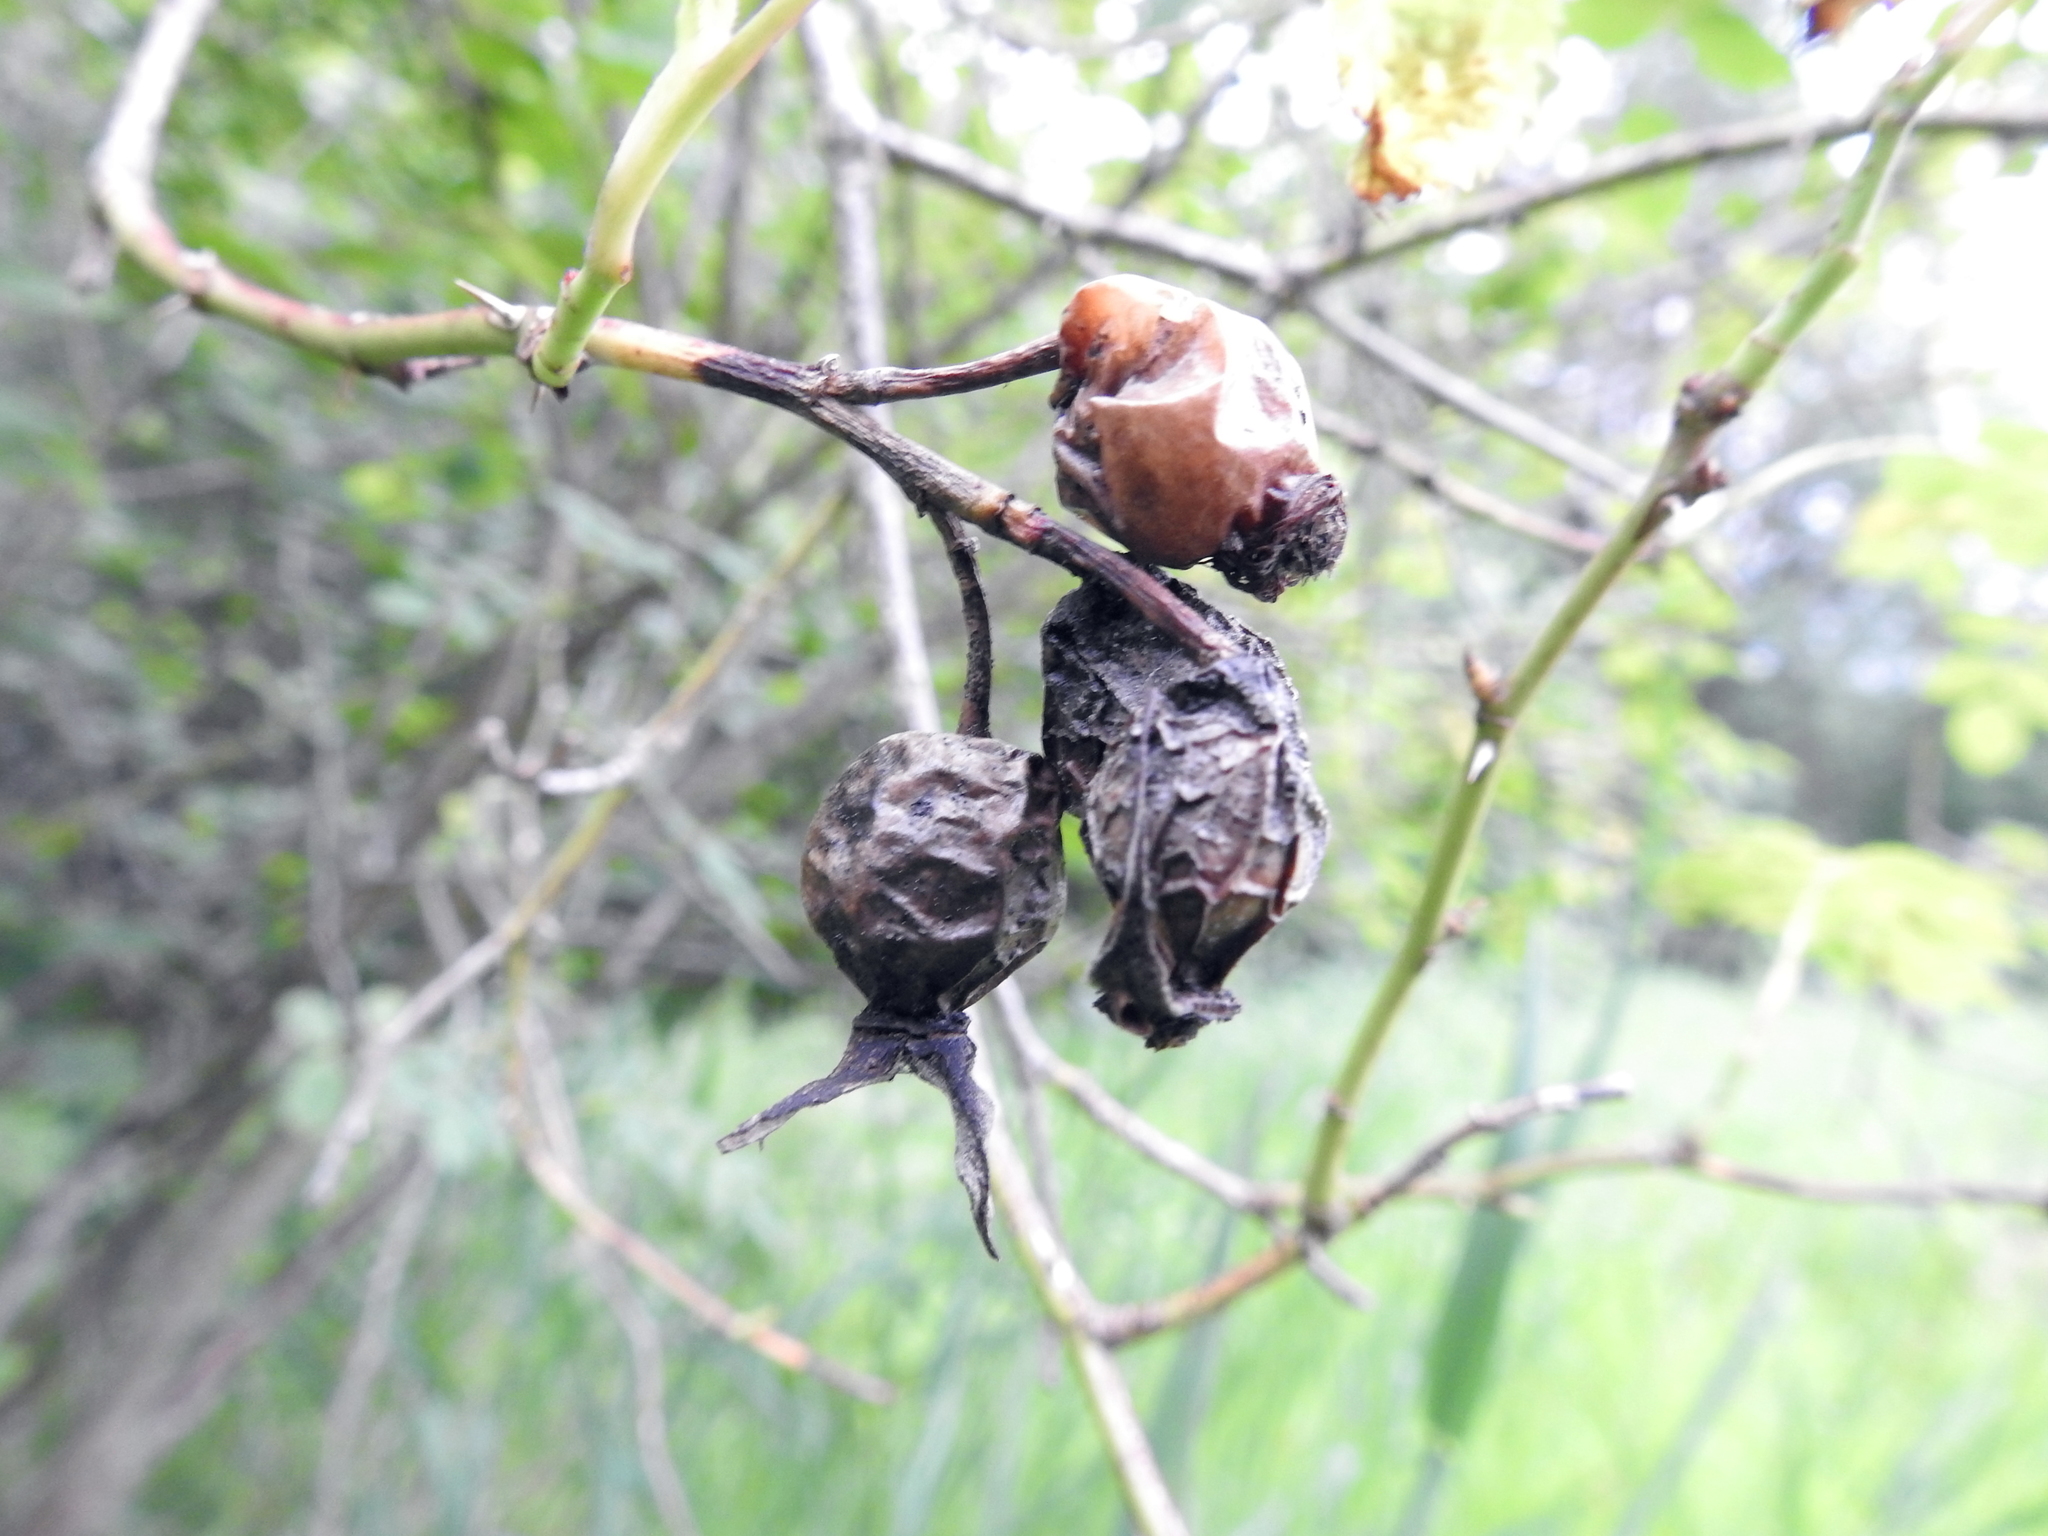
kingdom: Plantae
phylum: Tracheophyta
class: Magnoliopsida
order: Rosales
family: Rosaceae
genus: Rosa
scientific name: Rosa canina
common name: Dog rose
